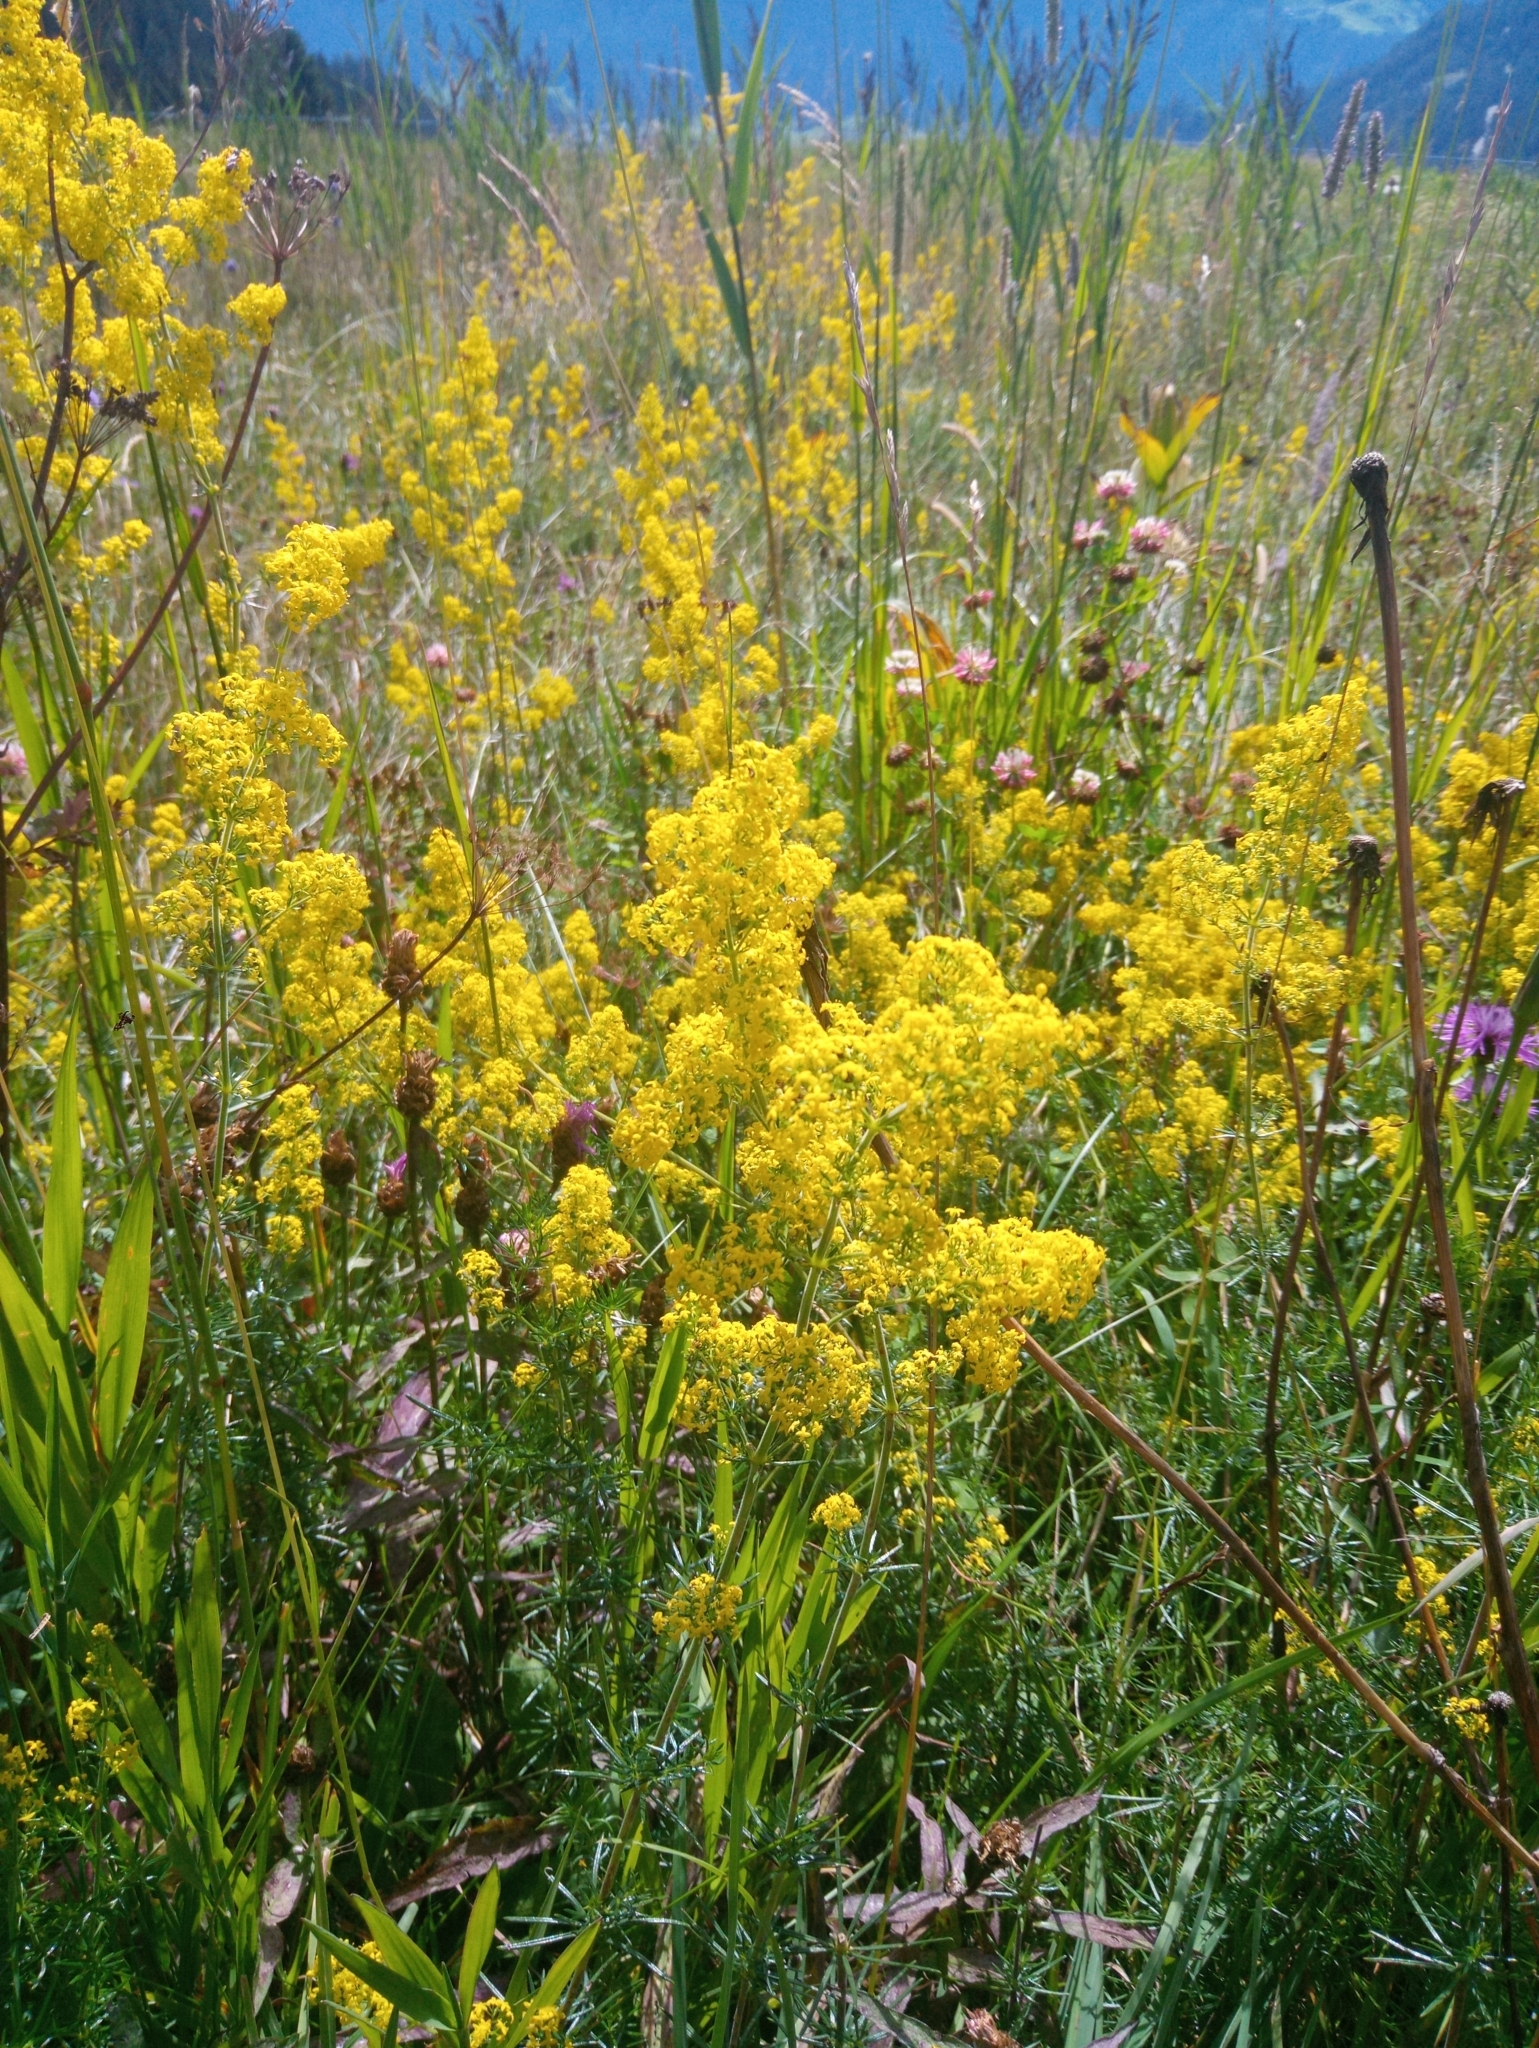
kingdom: Plantae
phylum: Tracheophyta
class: Magnoliopsida
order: Gentianales
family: Rubiaceae
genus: Galium
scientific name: Galium verum
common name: Lady's bedstraw
